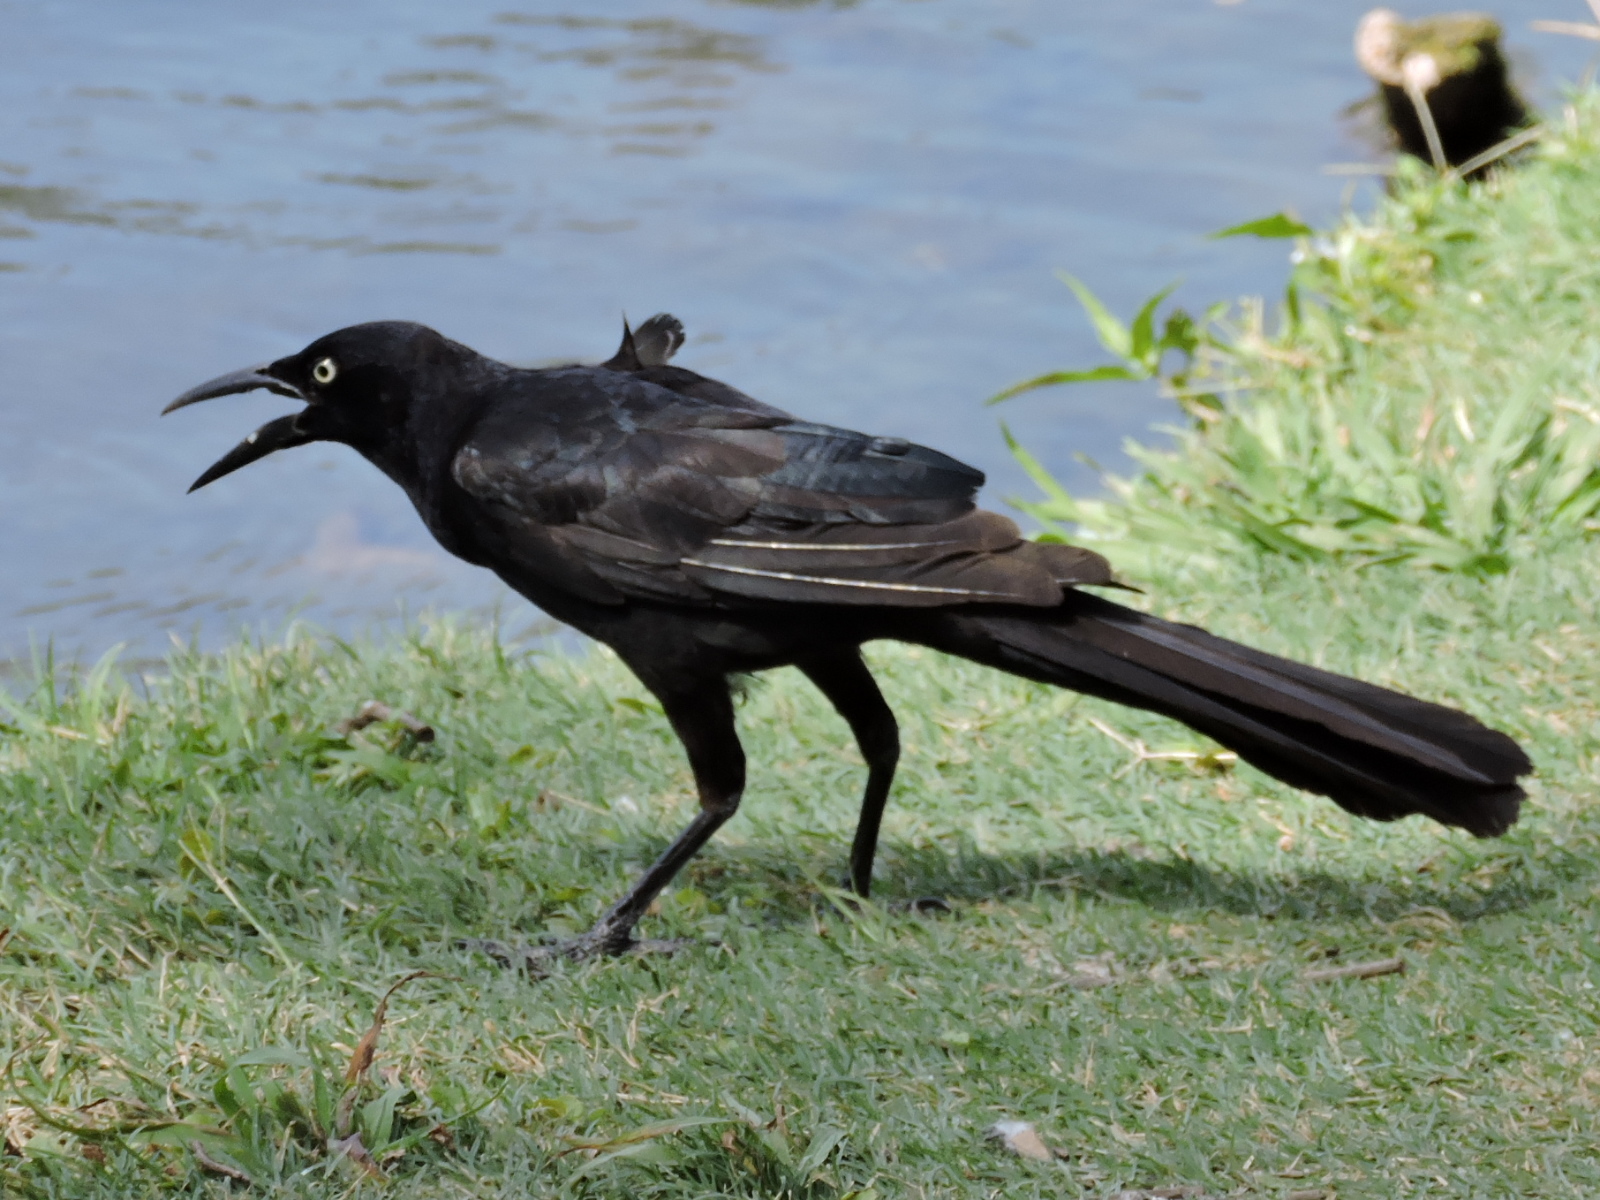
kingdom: Animalia
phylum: Chordata
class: Aves
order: Passeriformes
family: Icteridae
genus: Quiscalus
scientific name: Quiscalus mexicanus
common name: Great-tailed grackle
